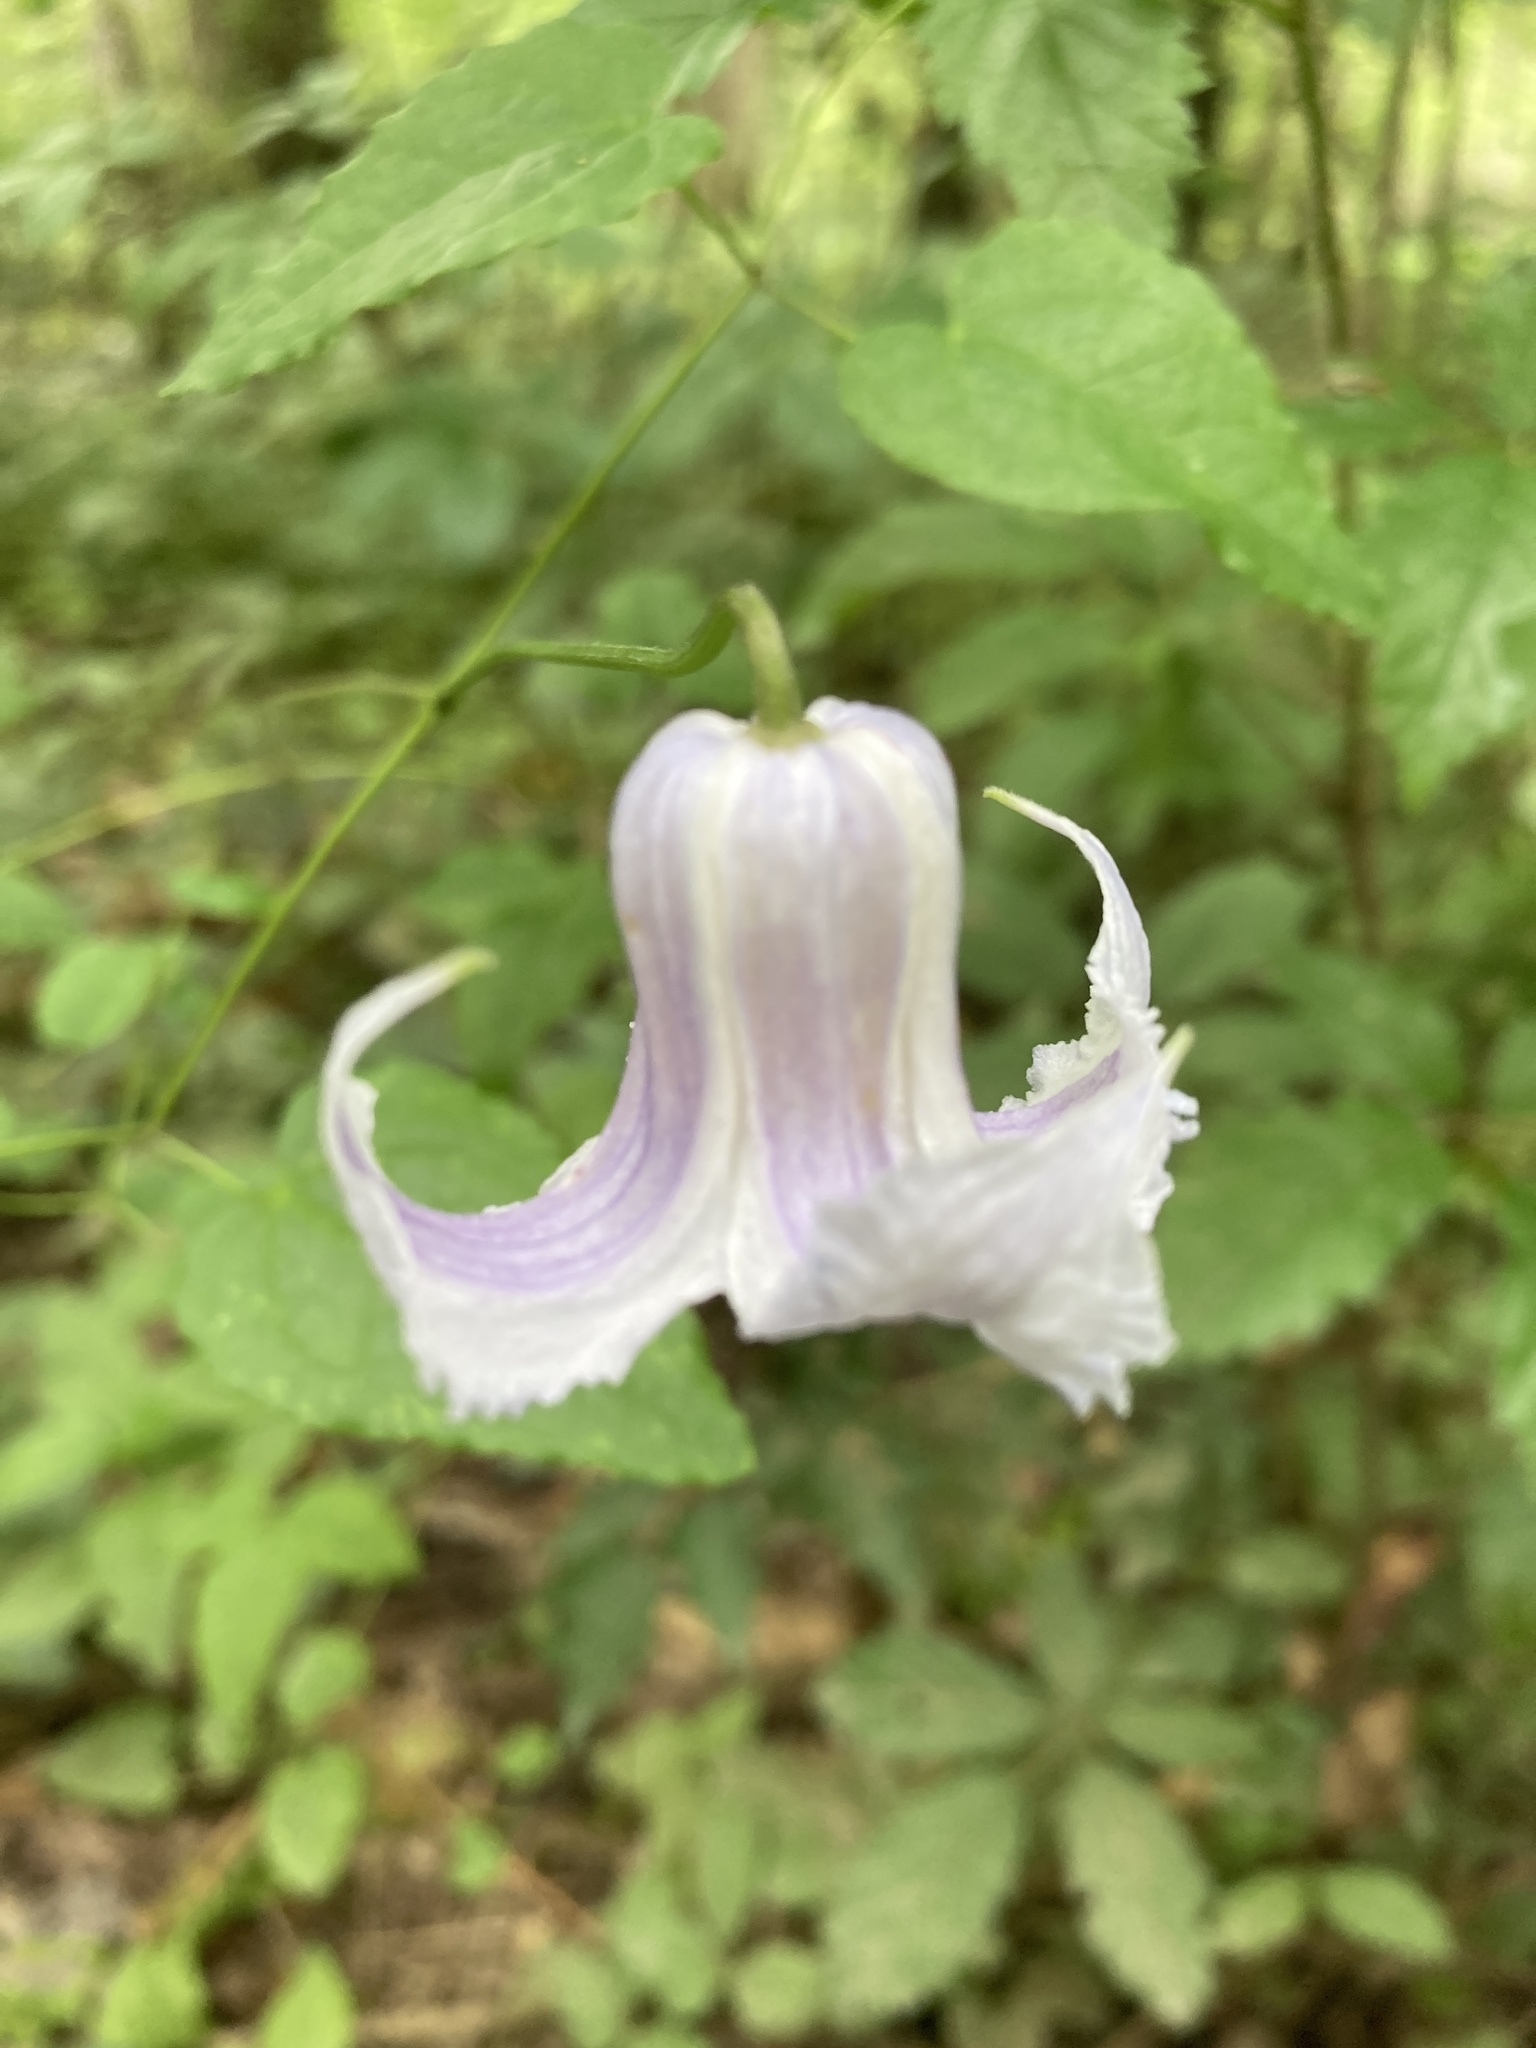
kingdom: Plantae
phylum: Tracheophyta
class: Magnoliopsida
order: Ranunculales
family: Ranunculaceae
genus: Clematis
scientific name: Clematis crispa
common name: Curly clematis
